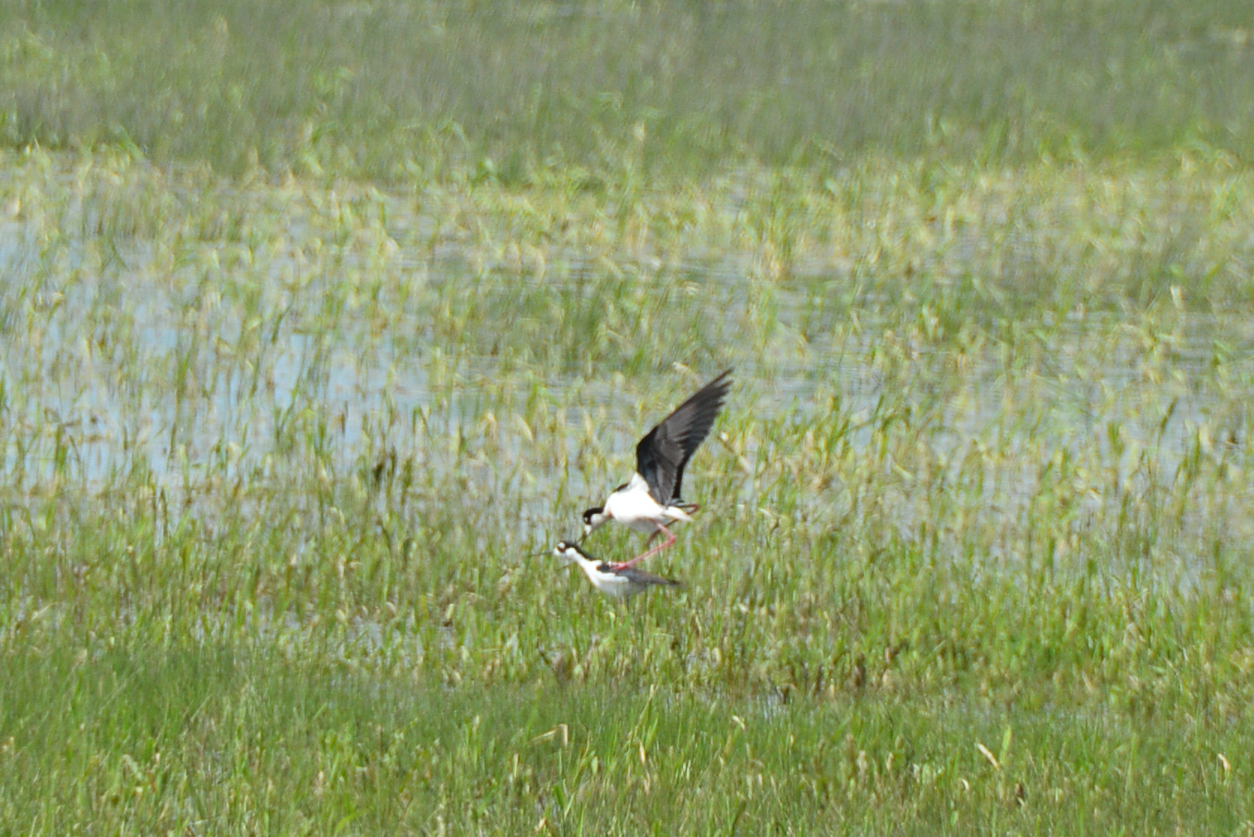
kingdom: Animalia
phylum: Chordata
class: Aves
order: Charadriiformes
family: Recurvirostridae
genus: Himantopus
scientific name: Himantopus mexicanus
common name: Black-necked stilt
